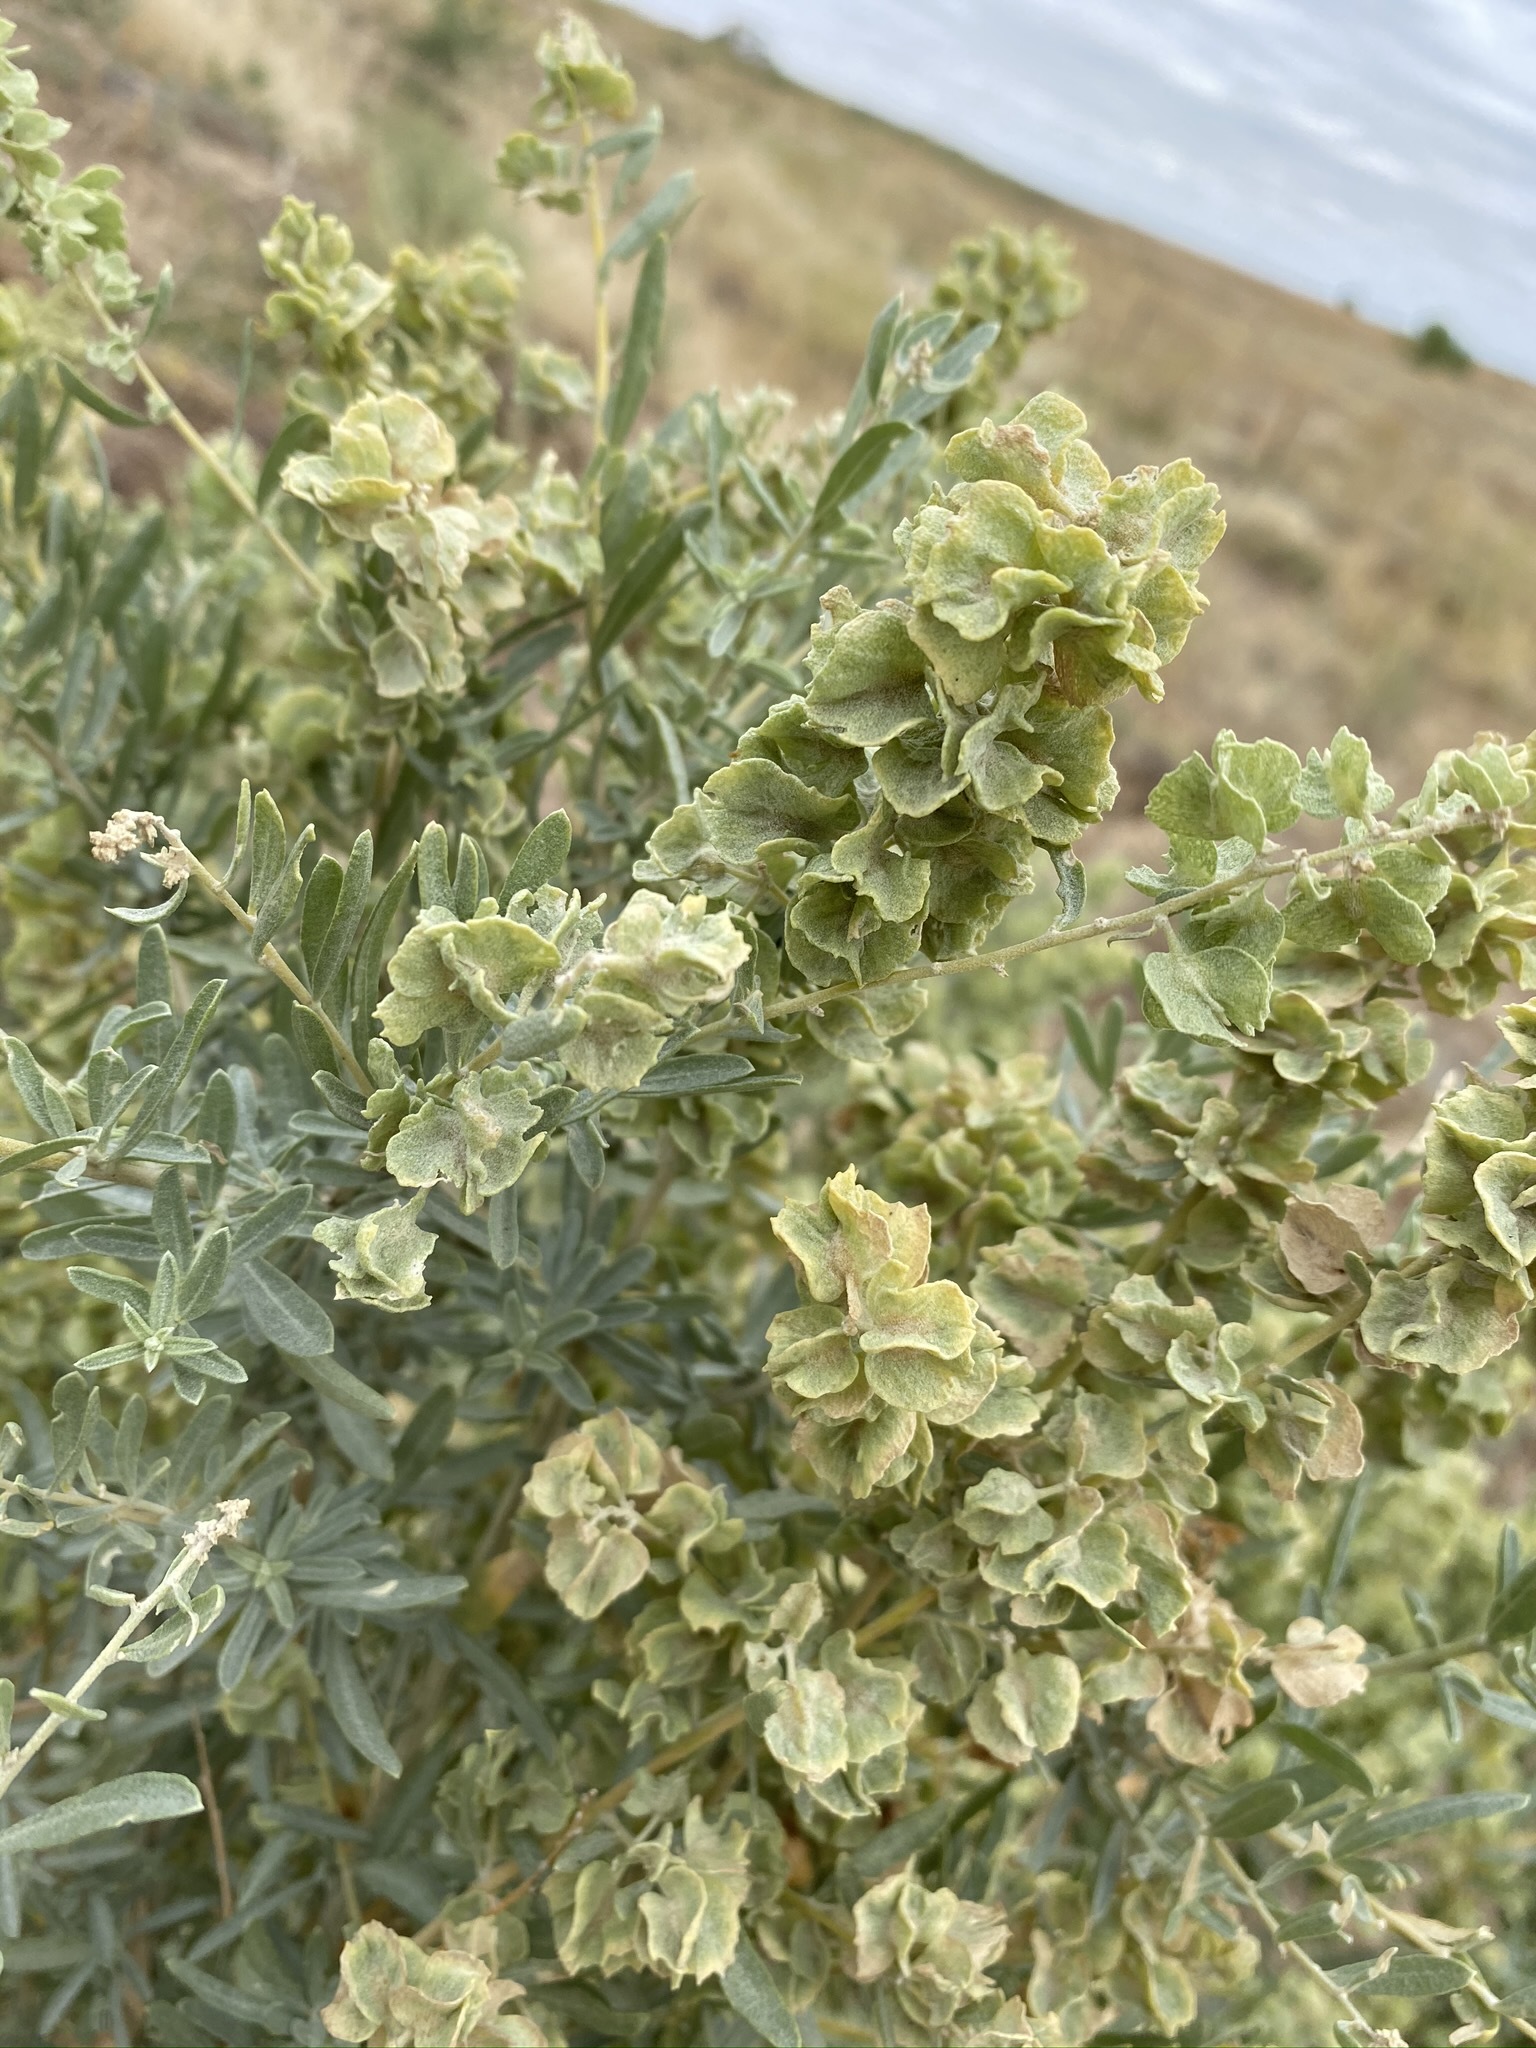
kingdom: Plantae
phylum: Tracheophyta
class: Magnoliopsida
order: Caryophyllales
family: Amaranthaceae
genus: Atriplex
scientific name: Atriplex canescens
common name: Four-wing saltbush
